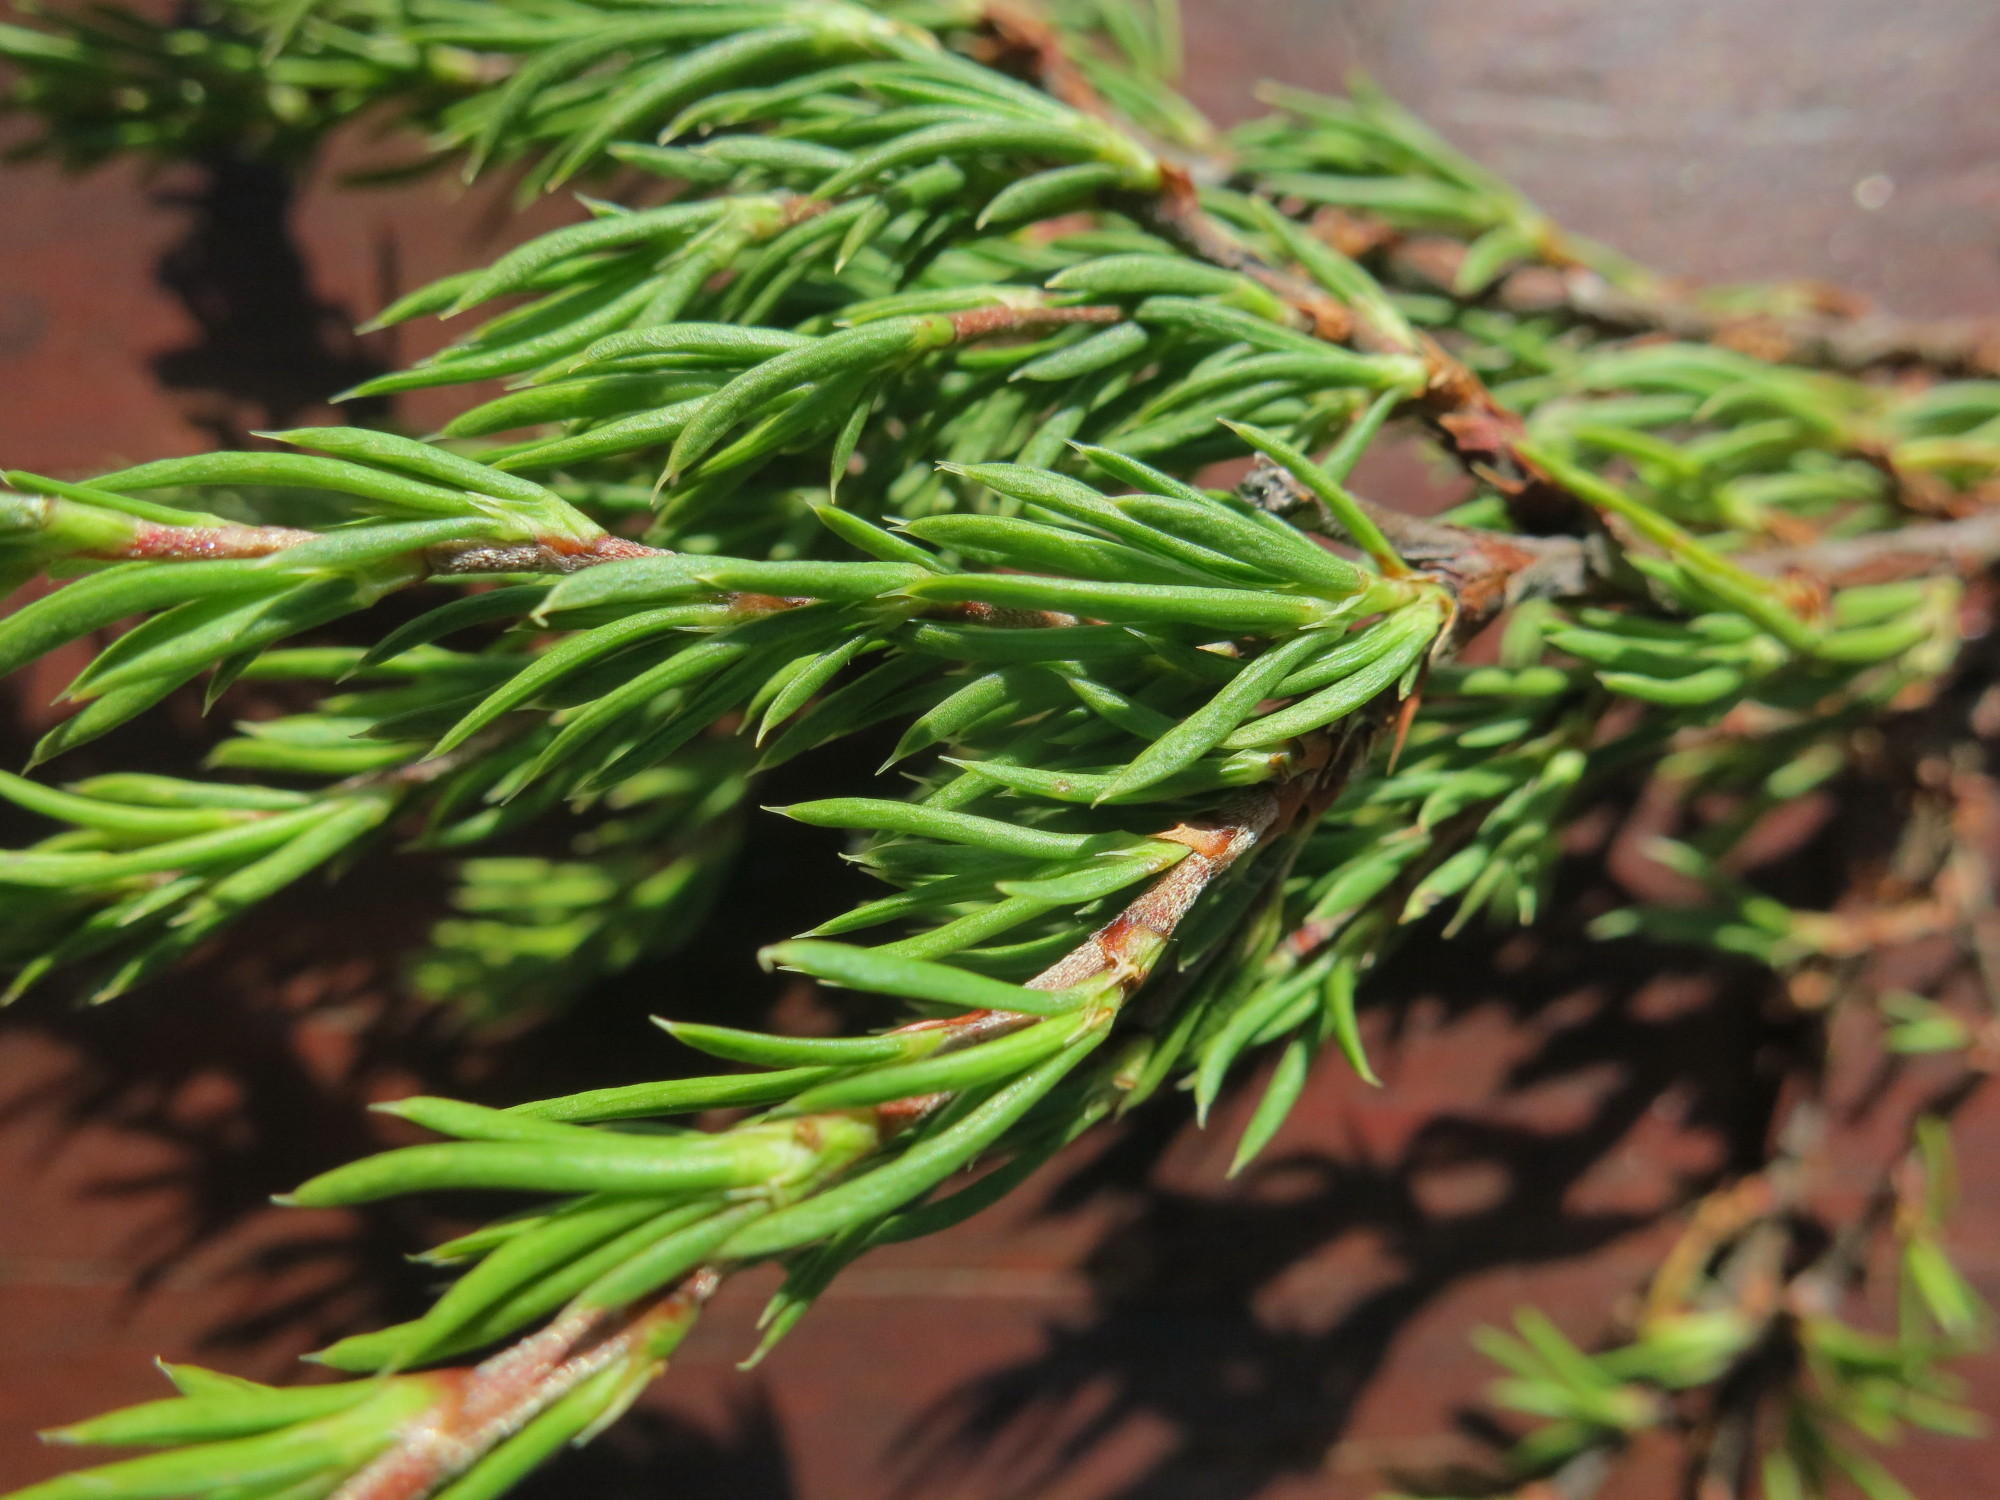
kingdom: Plantae
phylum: Tracheophyta
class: Magnoliopsida
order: Rosales
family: Rosaceae
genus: Cliffortia
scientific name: Cliffortia neglecta
